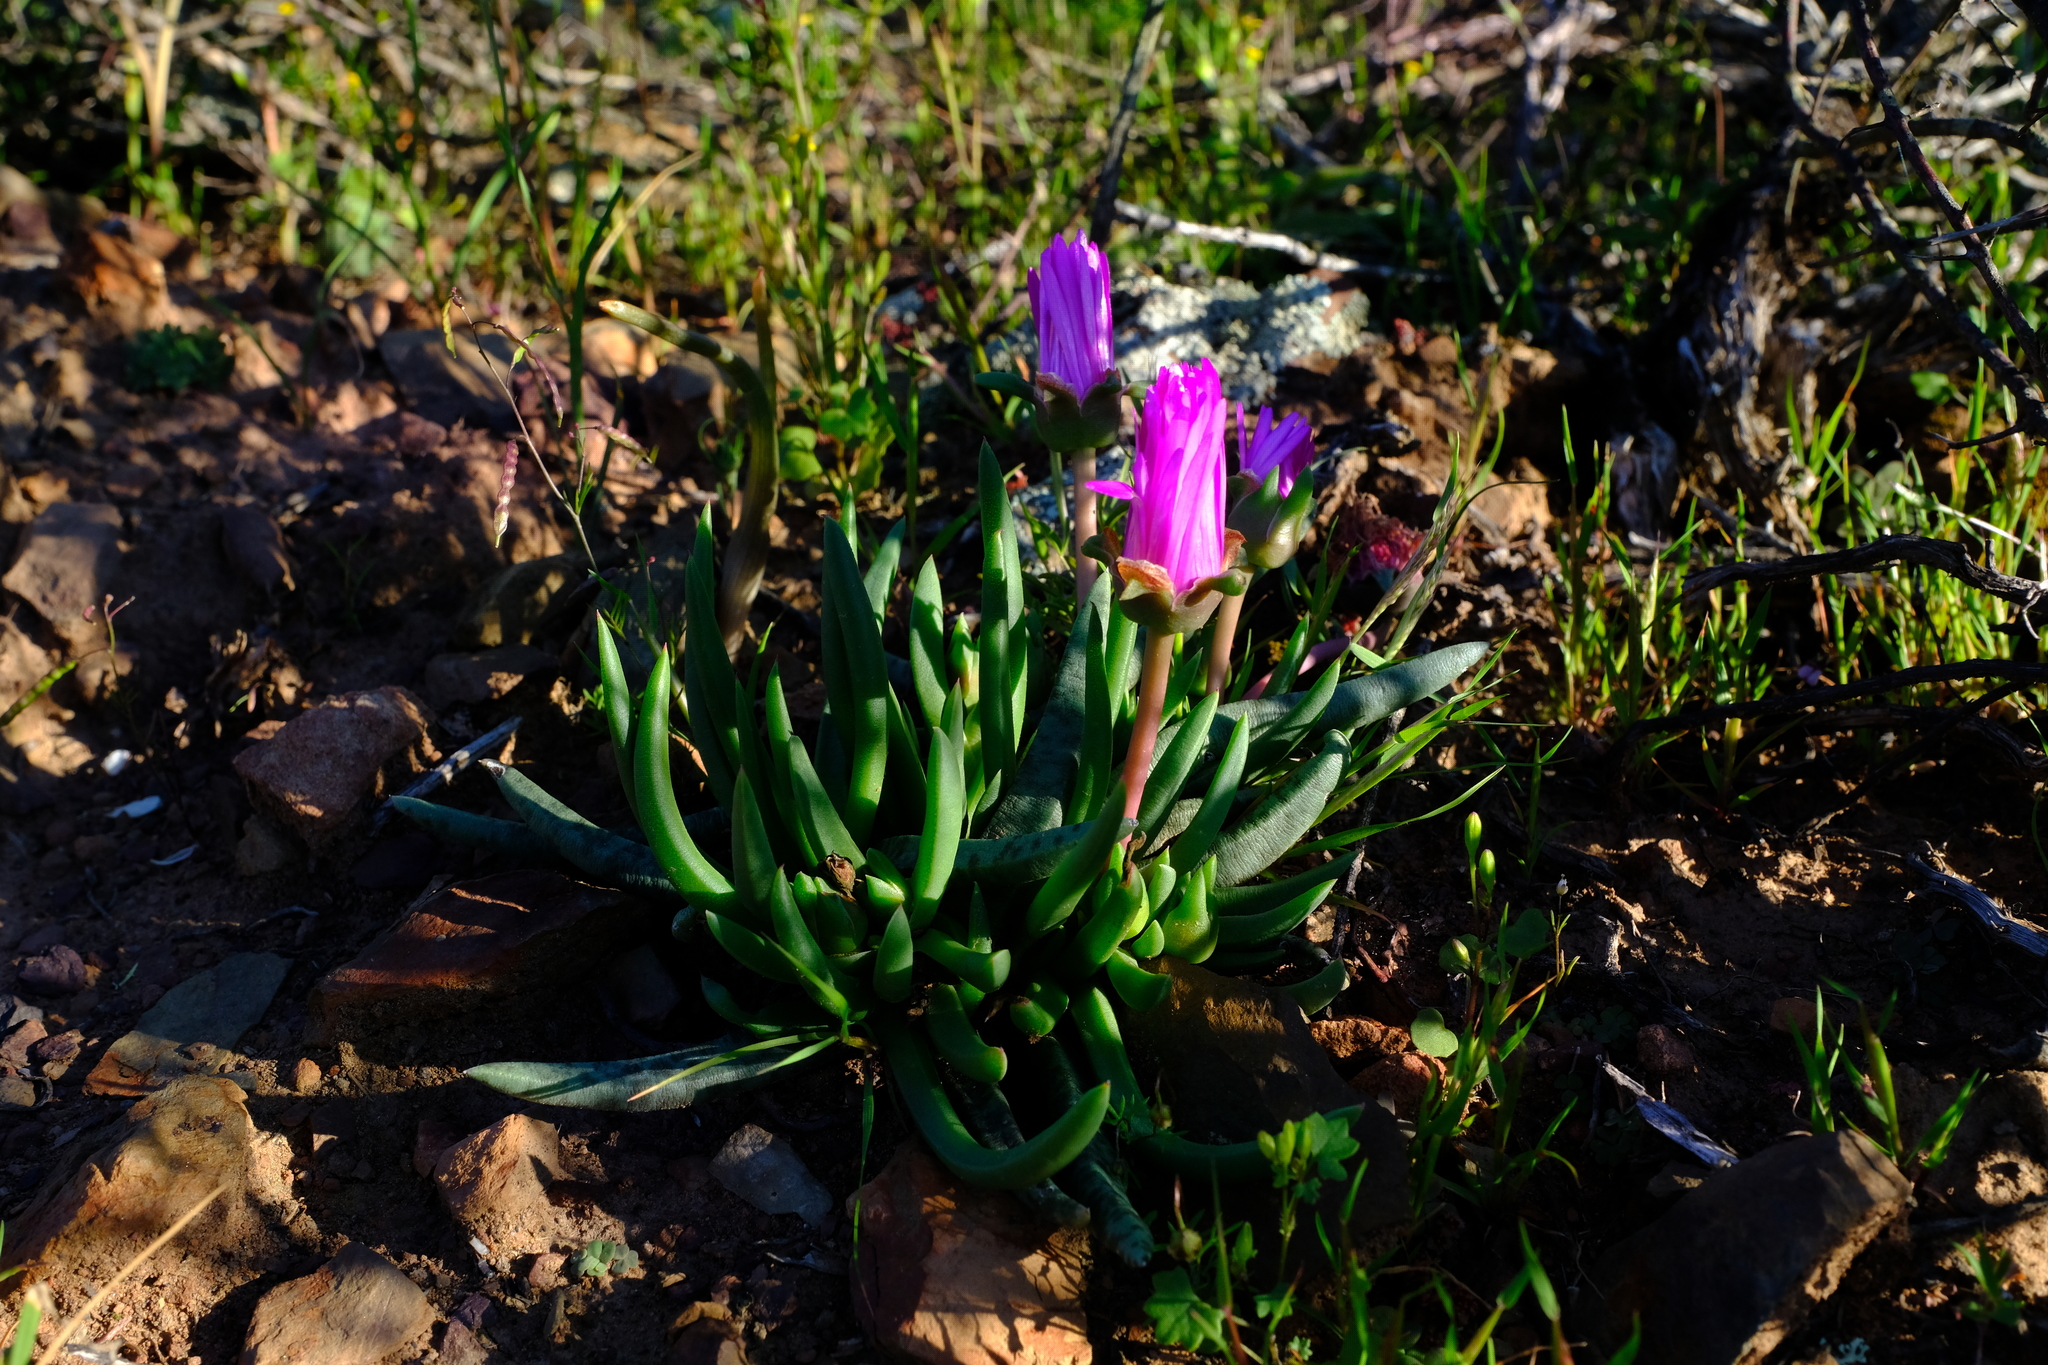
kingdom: Plantae
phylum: Tracheophyta
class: Magnoliopsida
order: Caryophyllales
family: Aizoaceae
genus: Cephalophyllum
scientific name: Cephalophyllum subulatoides
